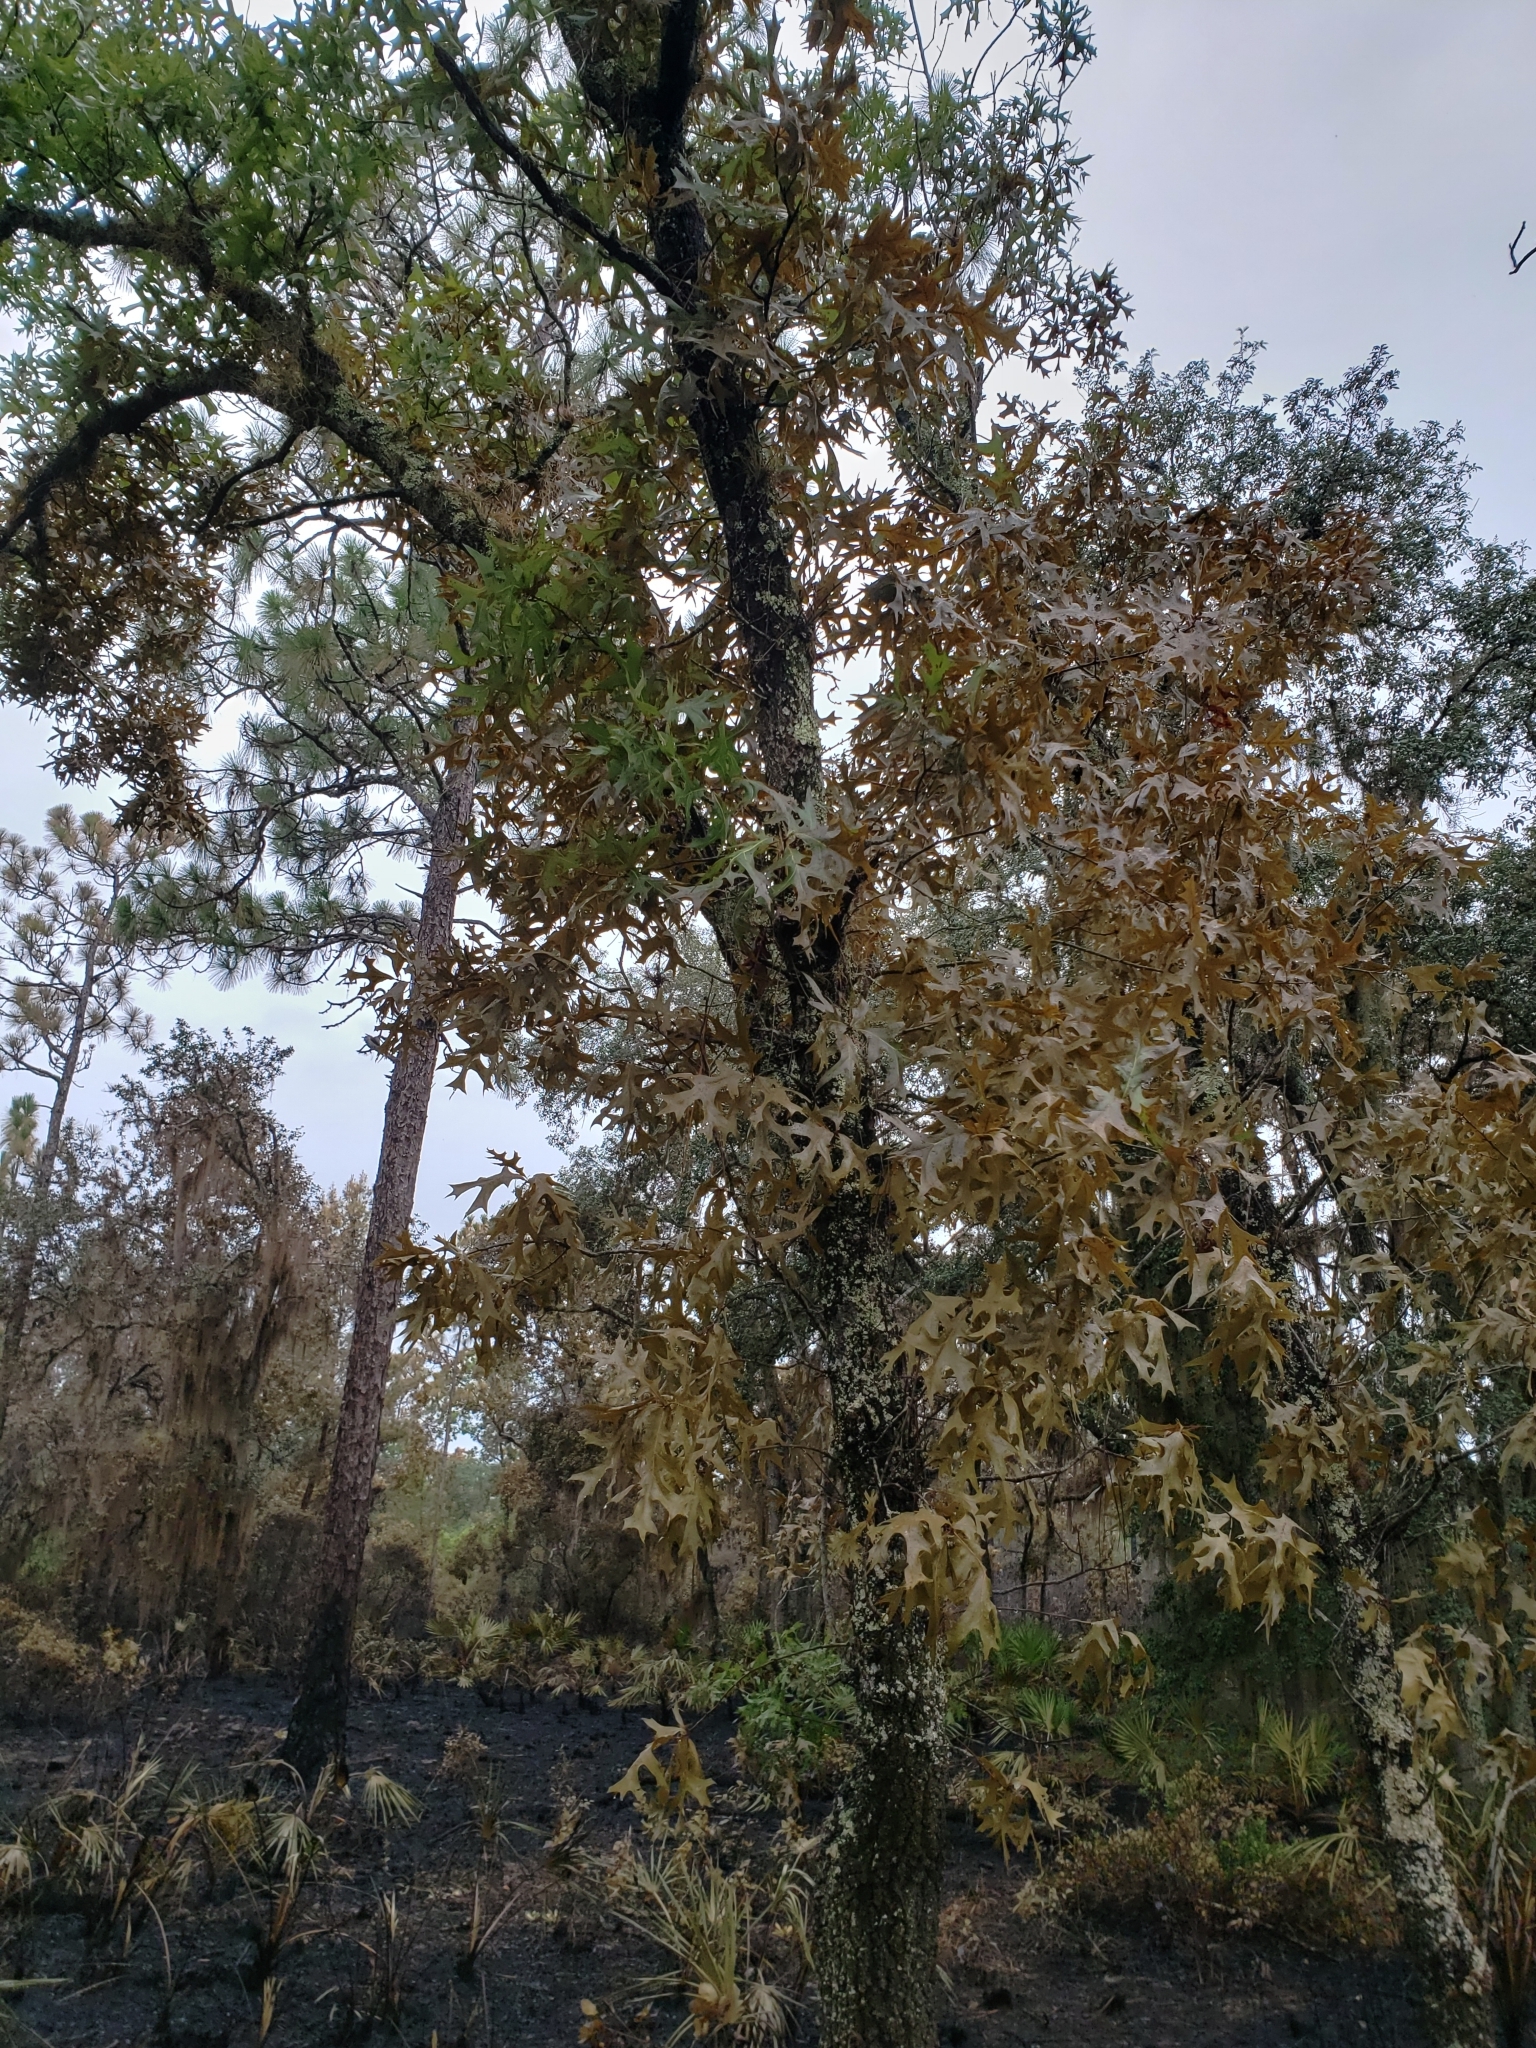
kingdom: Plantae
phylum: Tracheophyta
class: Magnoliopsida
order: Fagales
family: Fagaceae
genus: Quercus
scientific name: Quercus laevis
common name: Turkey oak
